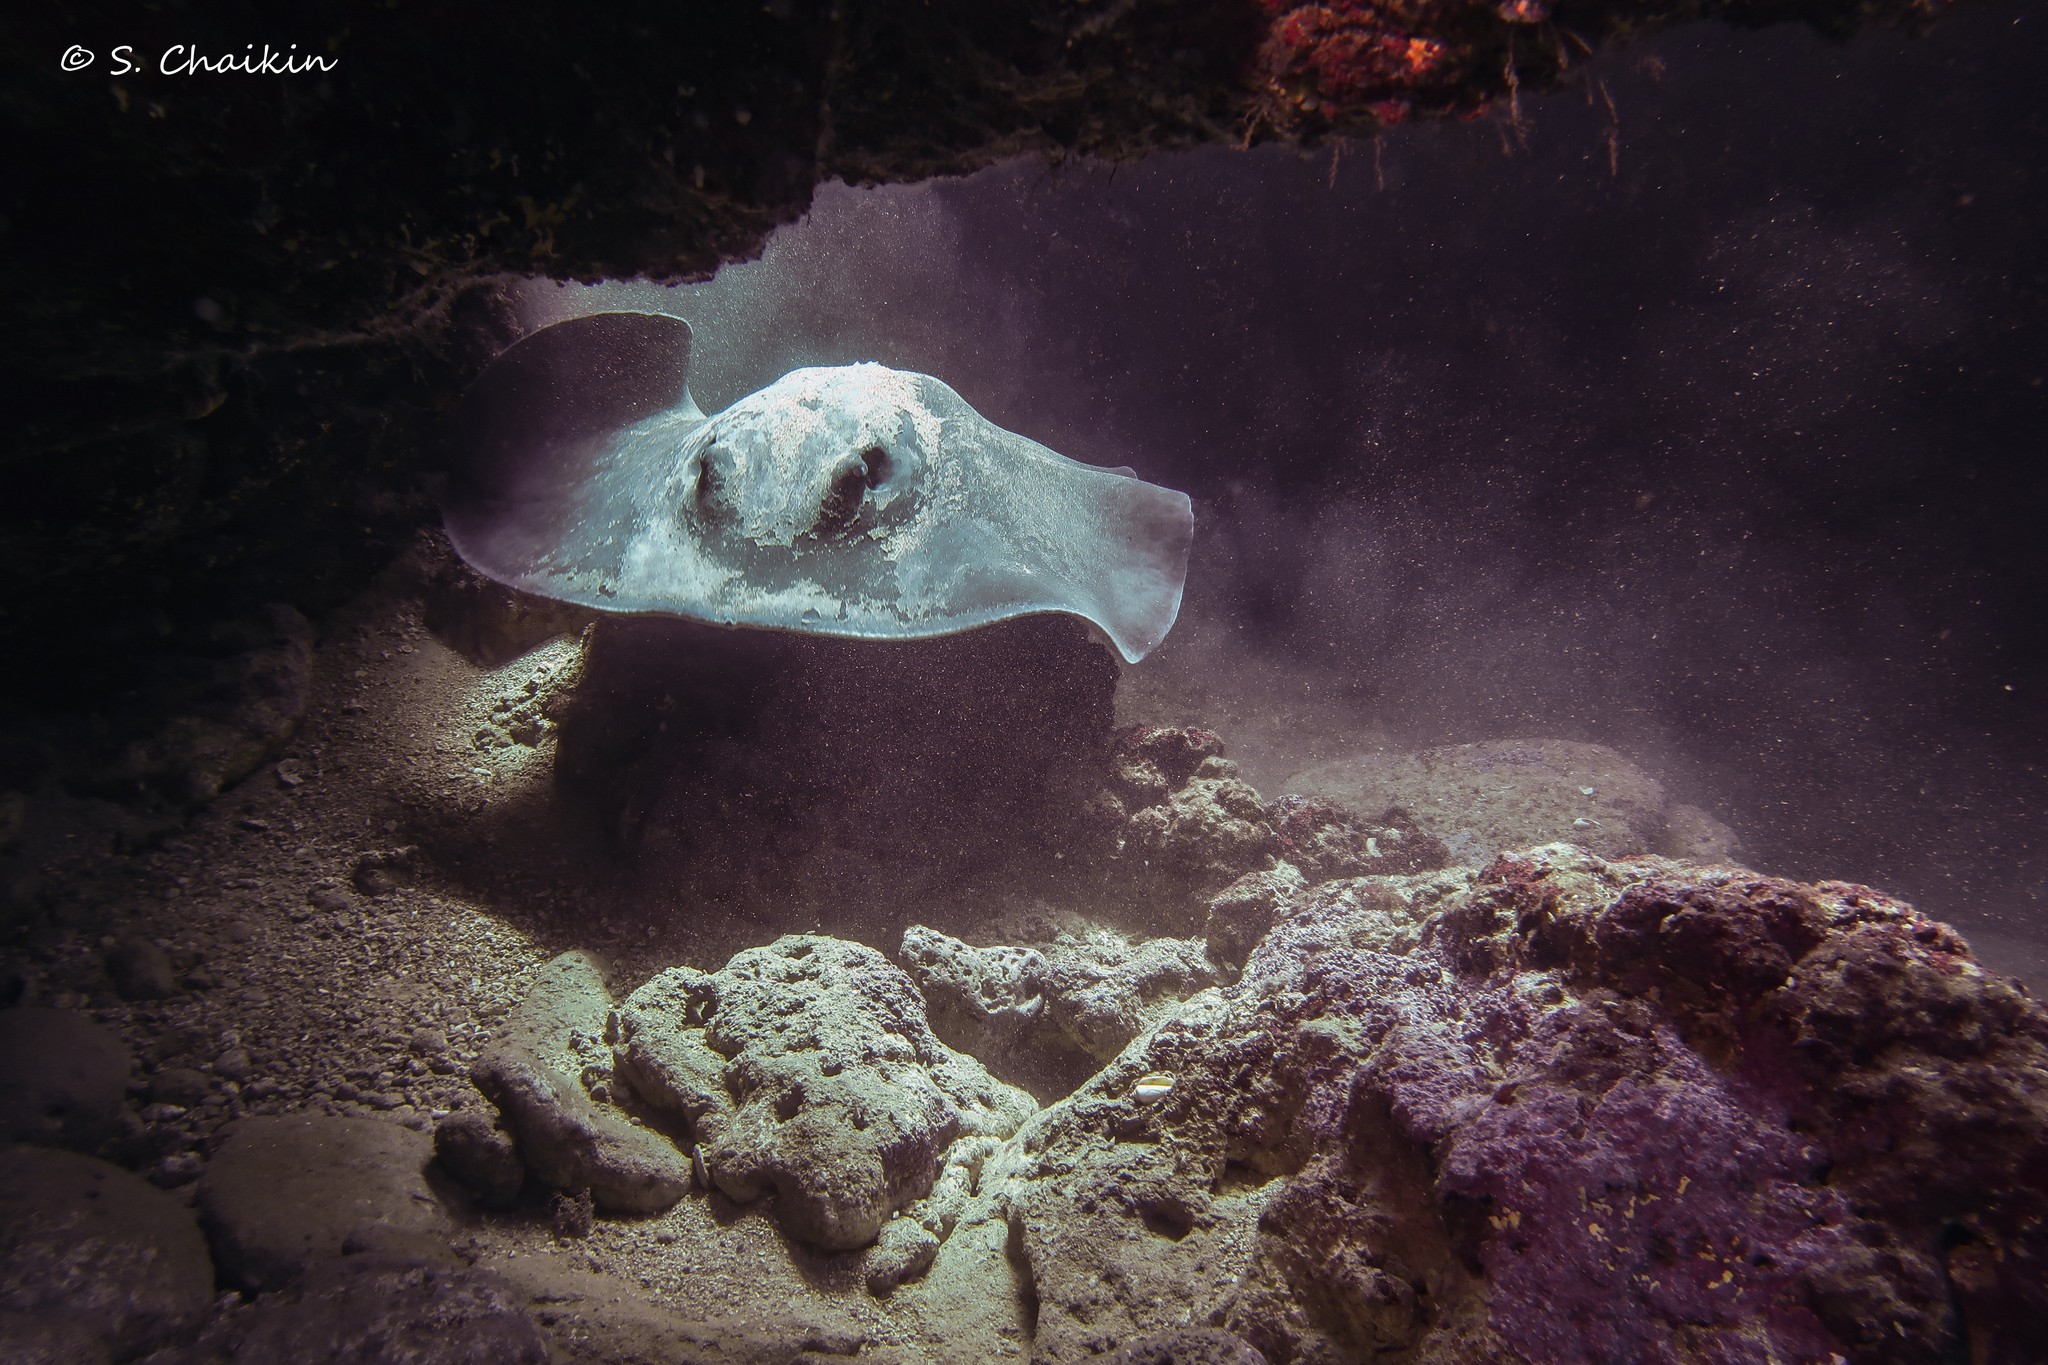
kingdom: Animalia
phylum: Chordata
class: Elasmobranchii
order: Myliobatiformes
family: Dasyatidae
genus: Taeniura
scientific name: Taeniura grabata
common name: Round stingray
